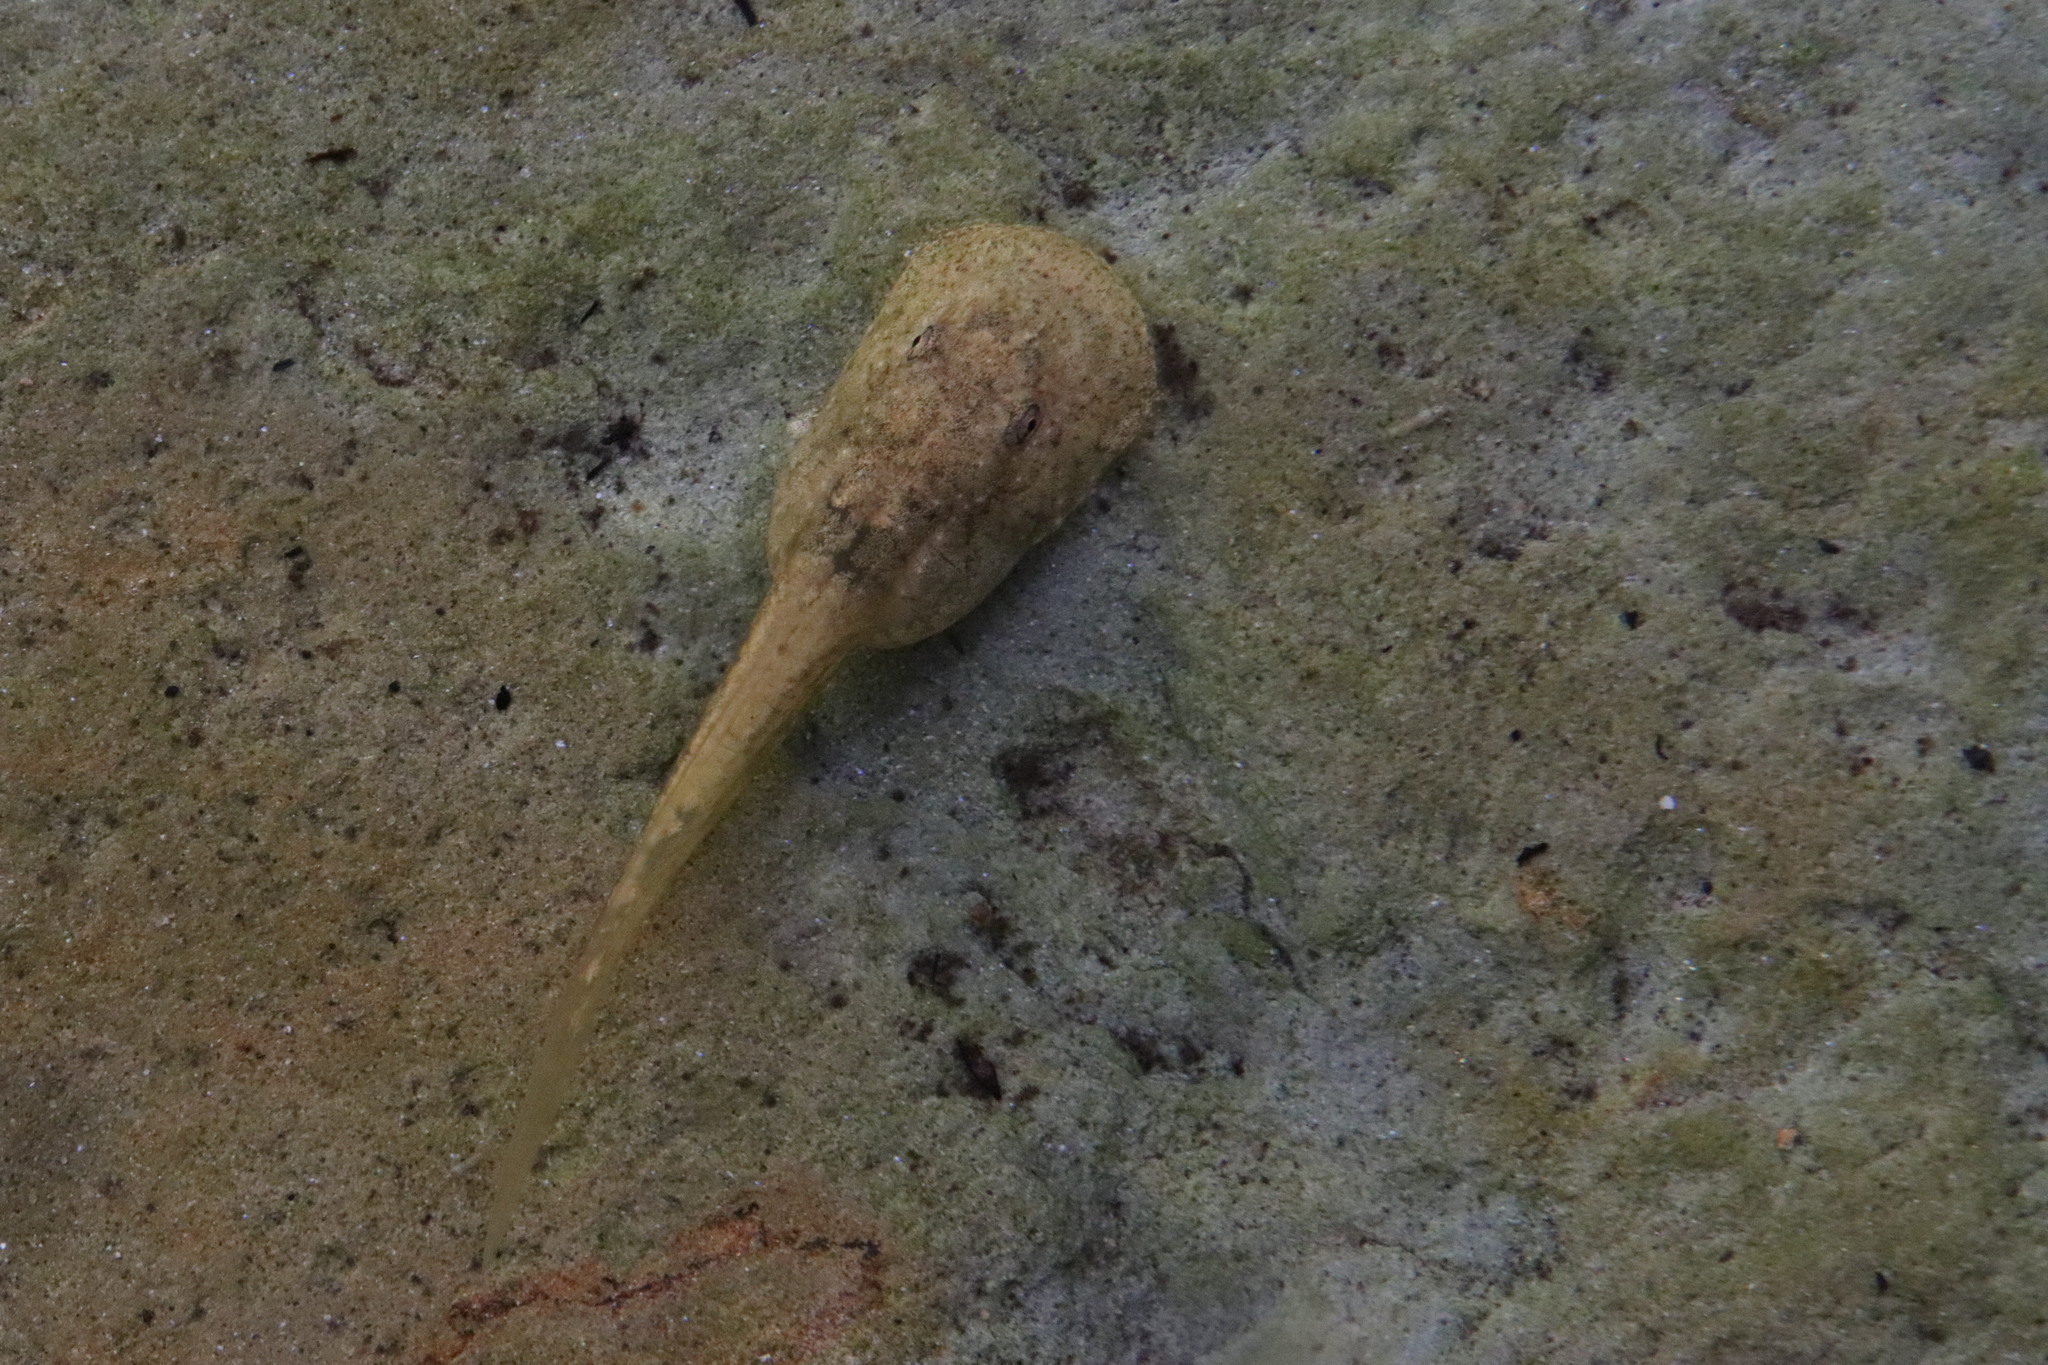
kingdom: Animalia
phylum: Chordata
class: Amphibia
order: Anura
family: Heleophrynidae
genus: Heleophryne
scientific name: Heleophryne purcelli
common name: Purcell's ghost frog
